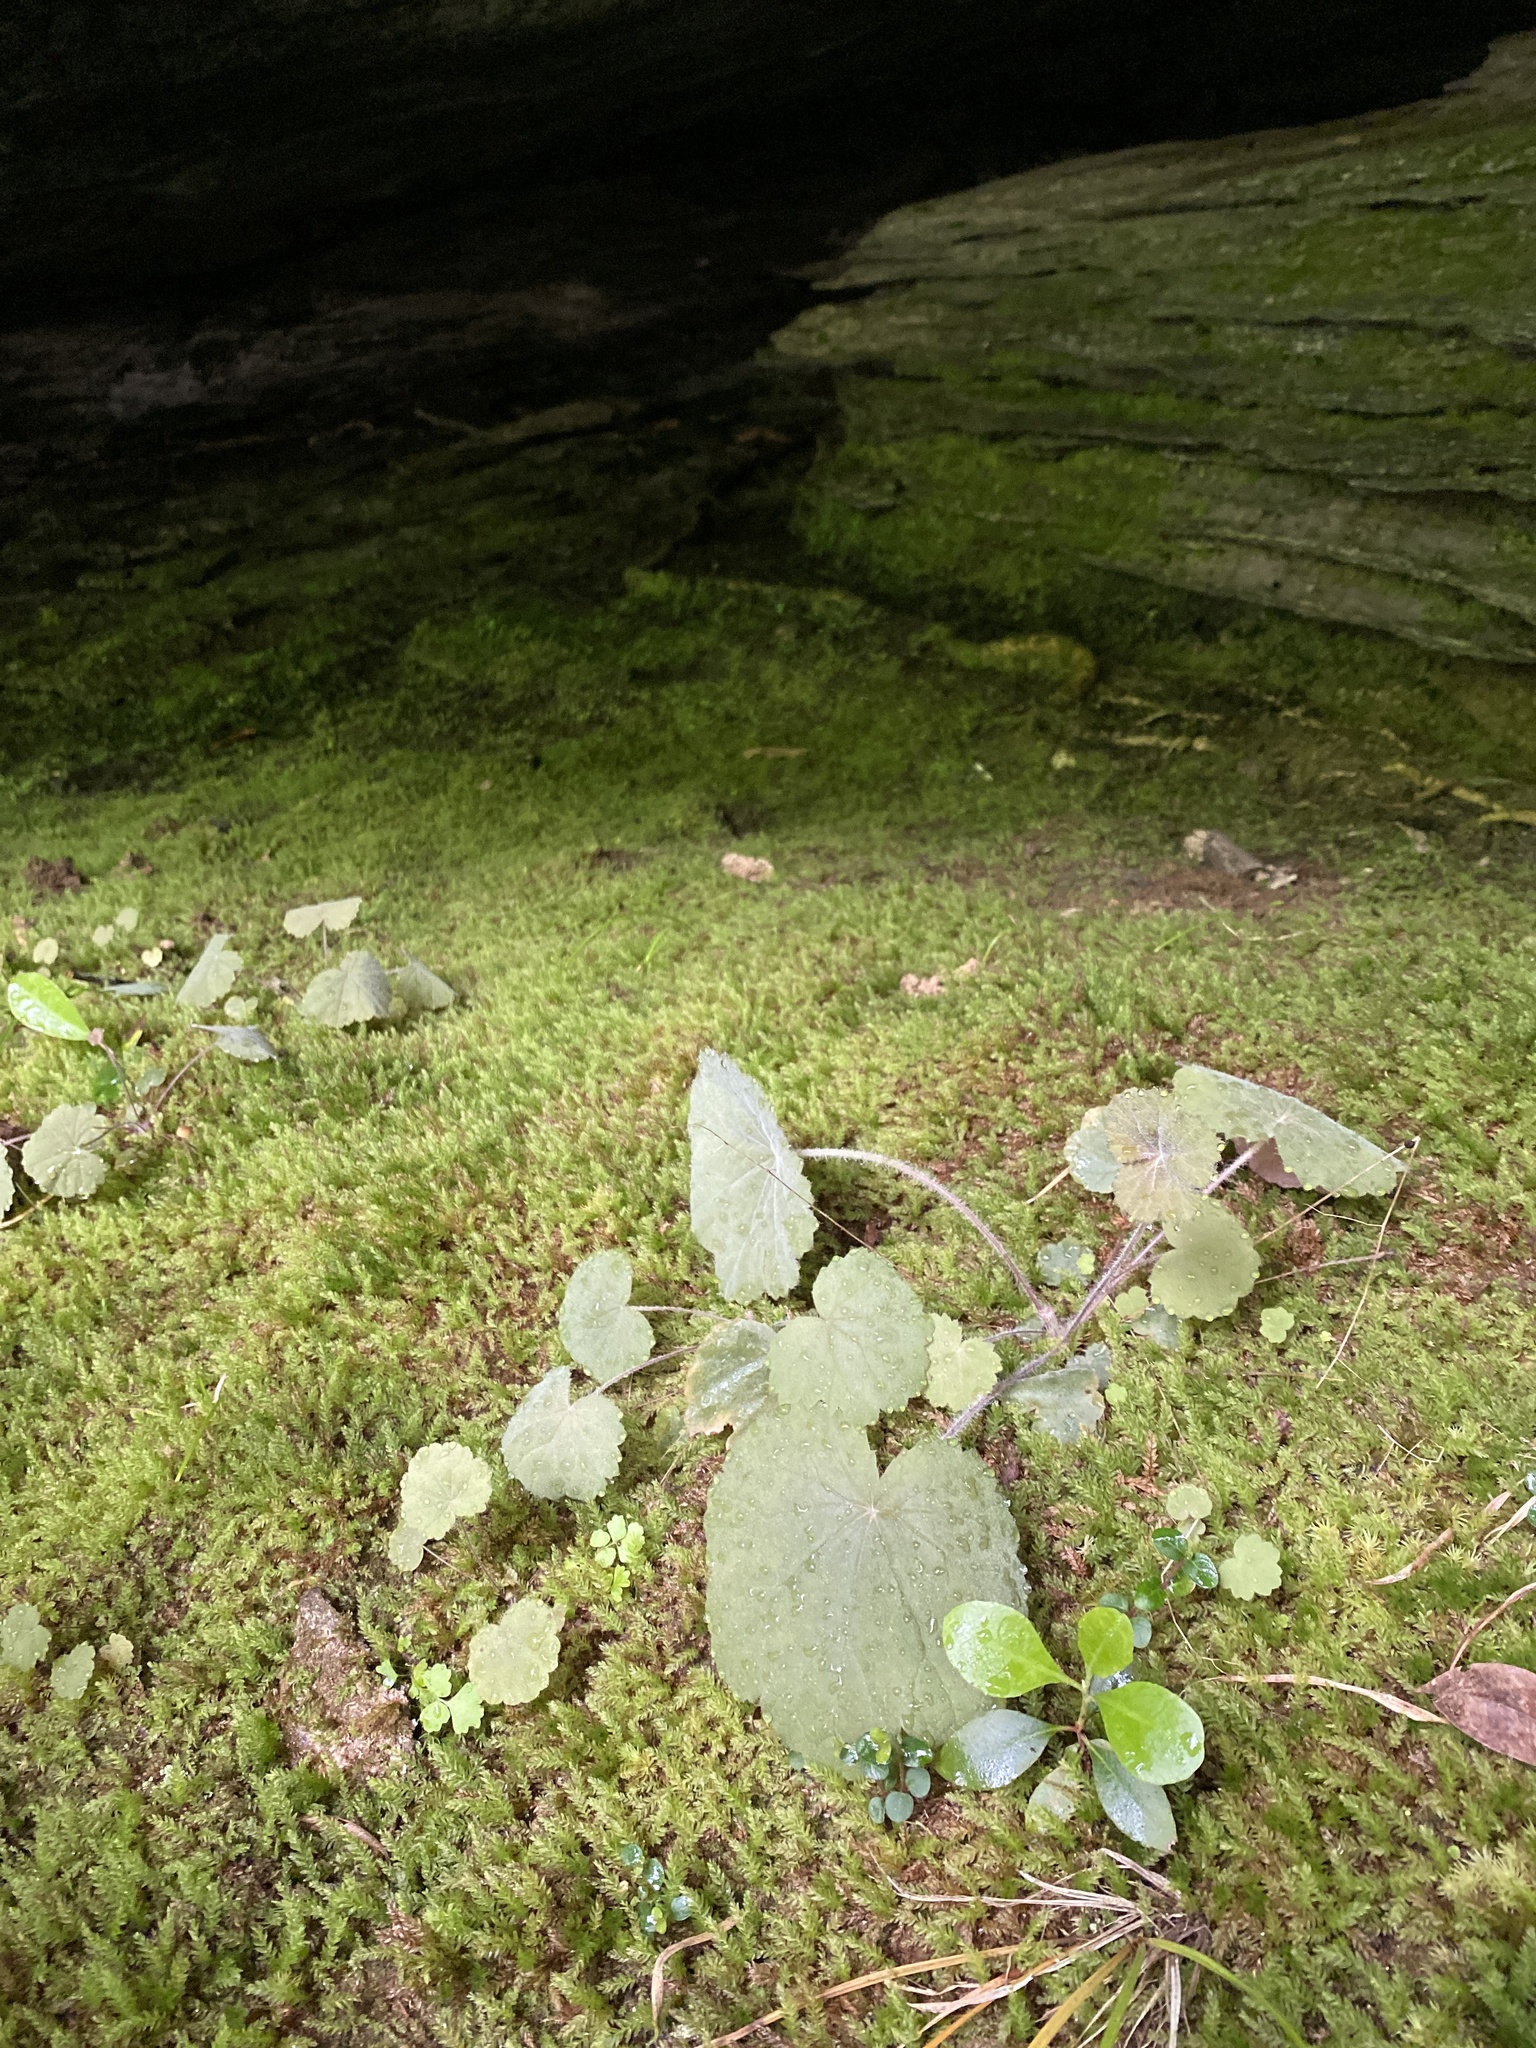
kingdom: Plantae
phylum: Tracheophyta
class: Magnoliopsida
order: Saxifragales
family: Saxifragaceae
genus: Heuchera
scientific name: Heuchera parviflora
